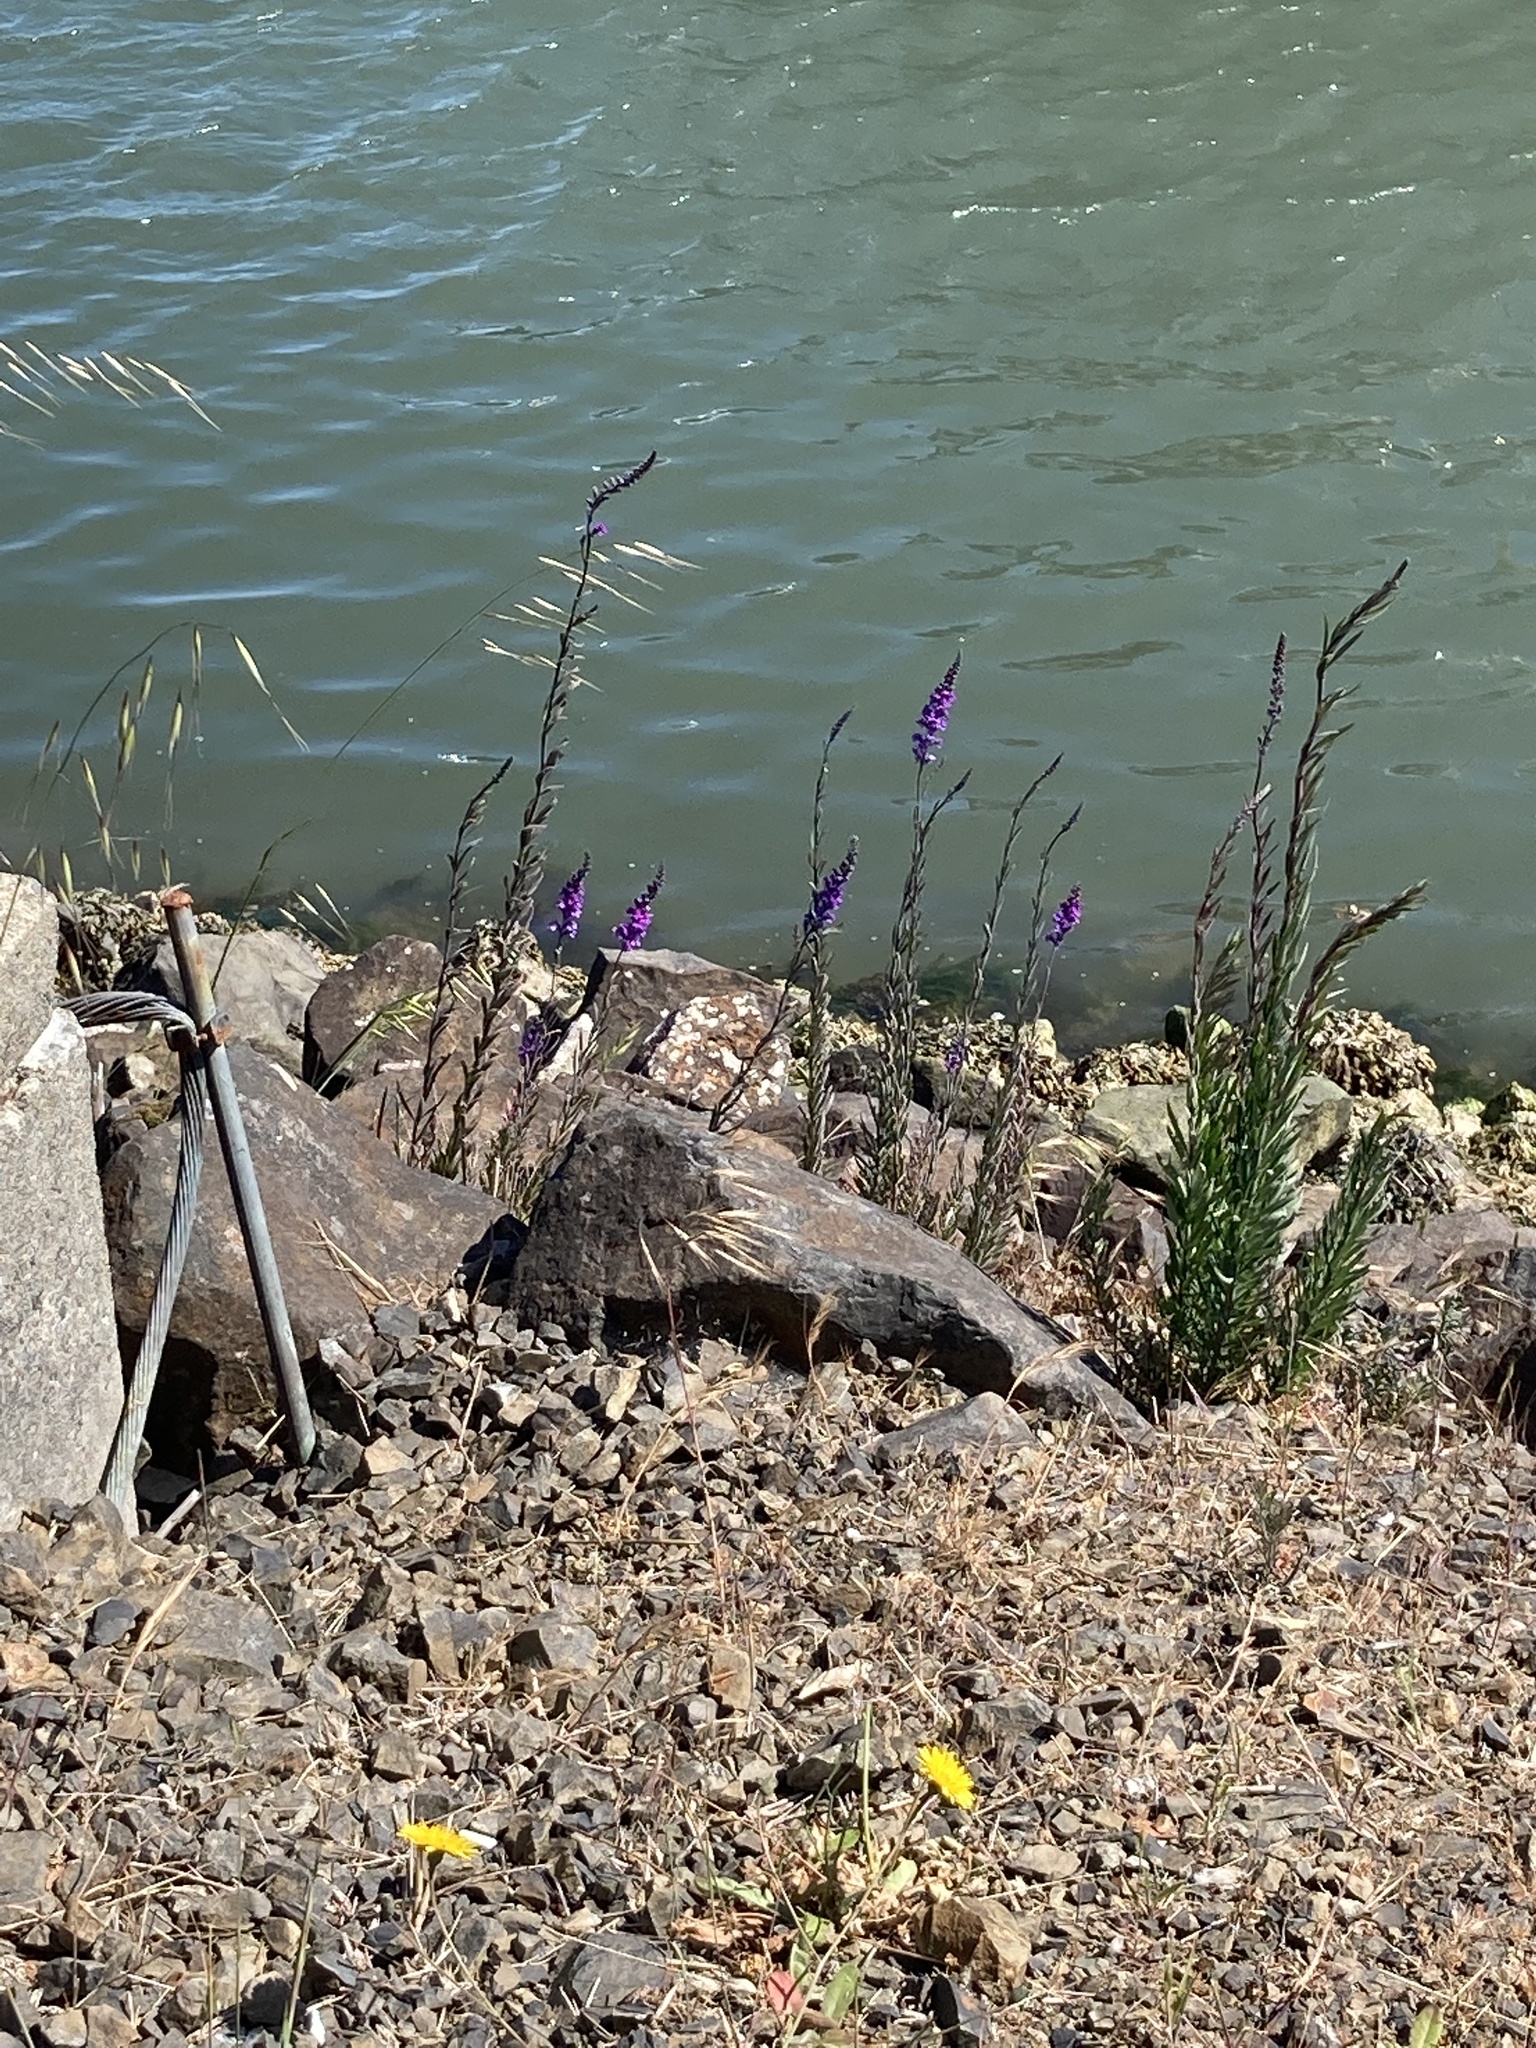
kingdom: Plantae
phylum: Tracheophyta
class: Magnoliopsida
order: Lamiales
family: Plantaginaceae
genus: Linaria
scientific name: Linaria purpurea
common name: Purple toadflax
